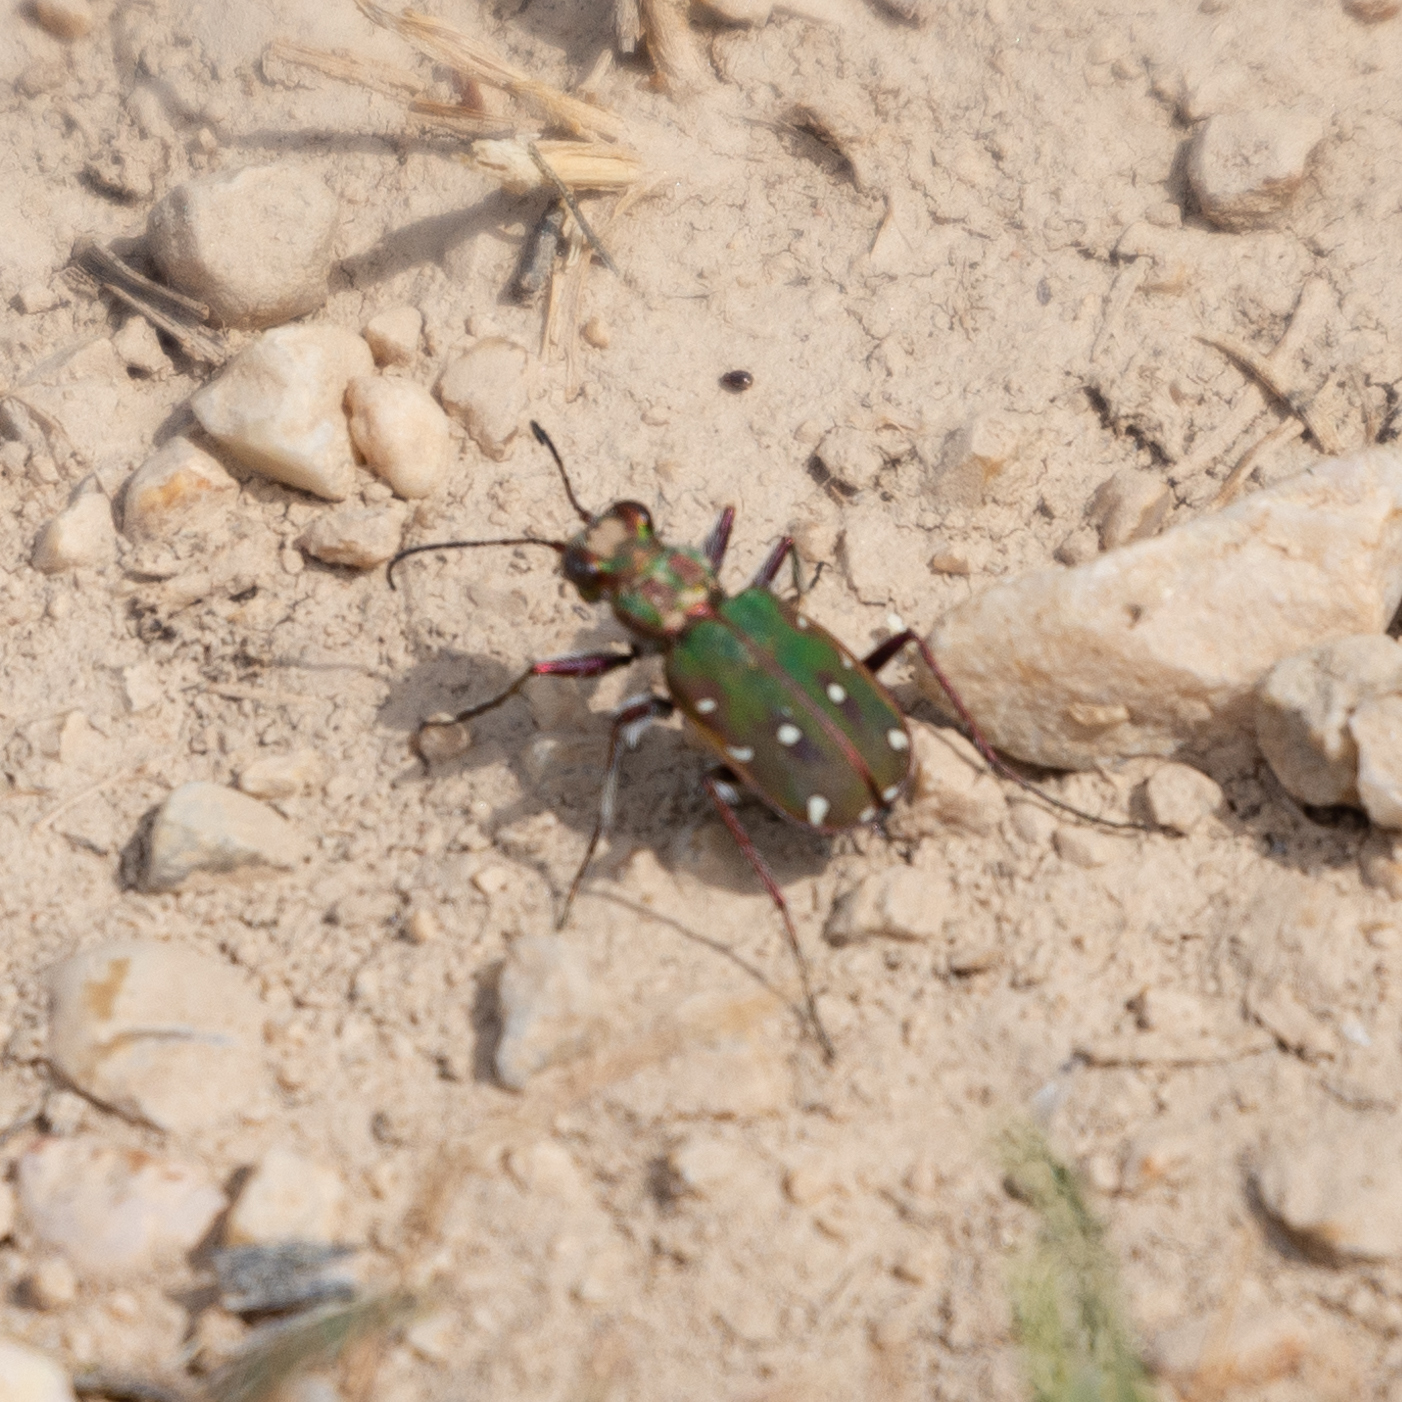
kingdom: Animalia
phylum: Arthropoda
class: Insecta
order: Coleoptera
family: Carabidae
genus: Cicindela
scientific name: Cicindela maroccana
